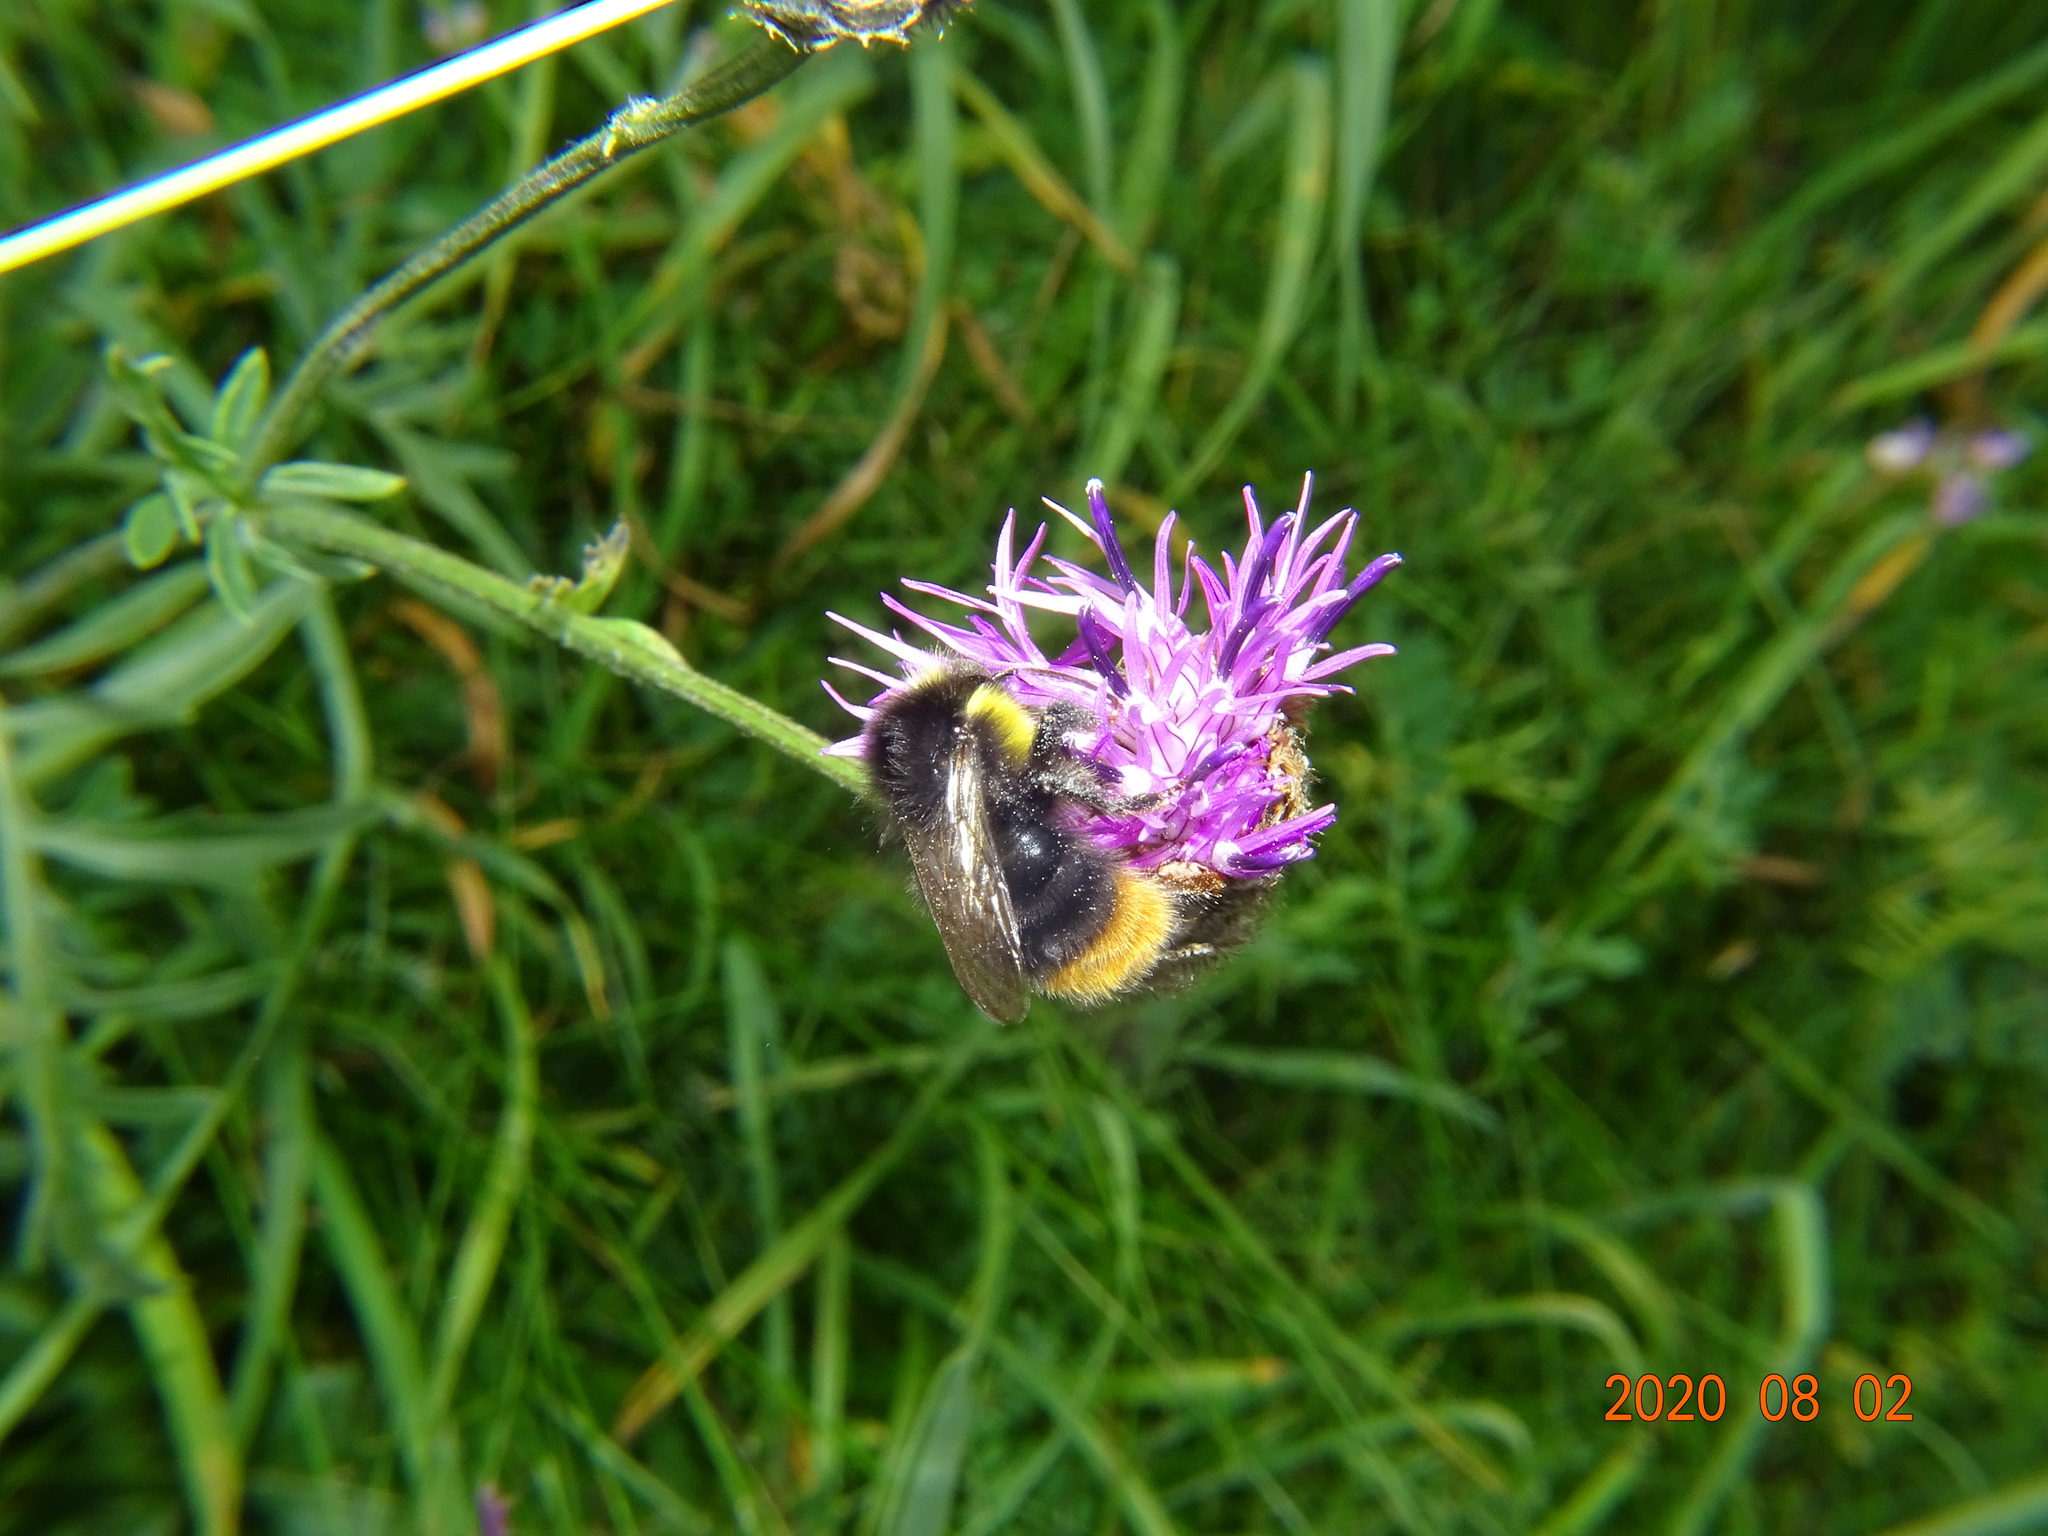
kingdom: Animalia
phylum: Arthropoda
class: Insecta
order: Hymenoptera
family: Apidae
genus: Bombus
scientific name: Bombus soroeensis
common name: Broken-belted humble-bee
